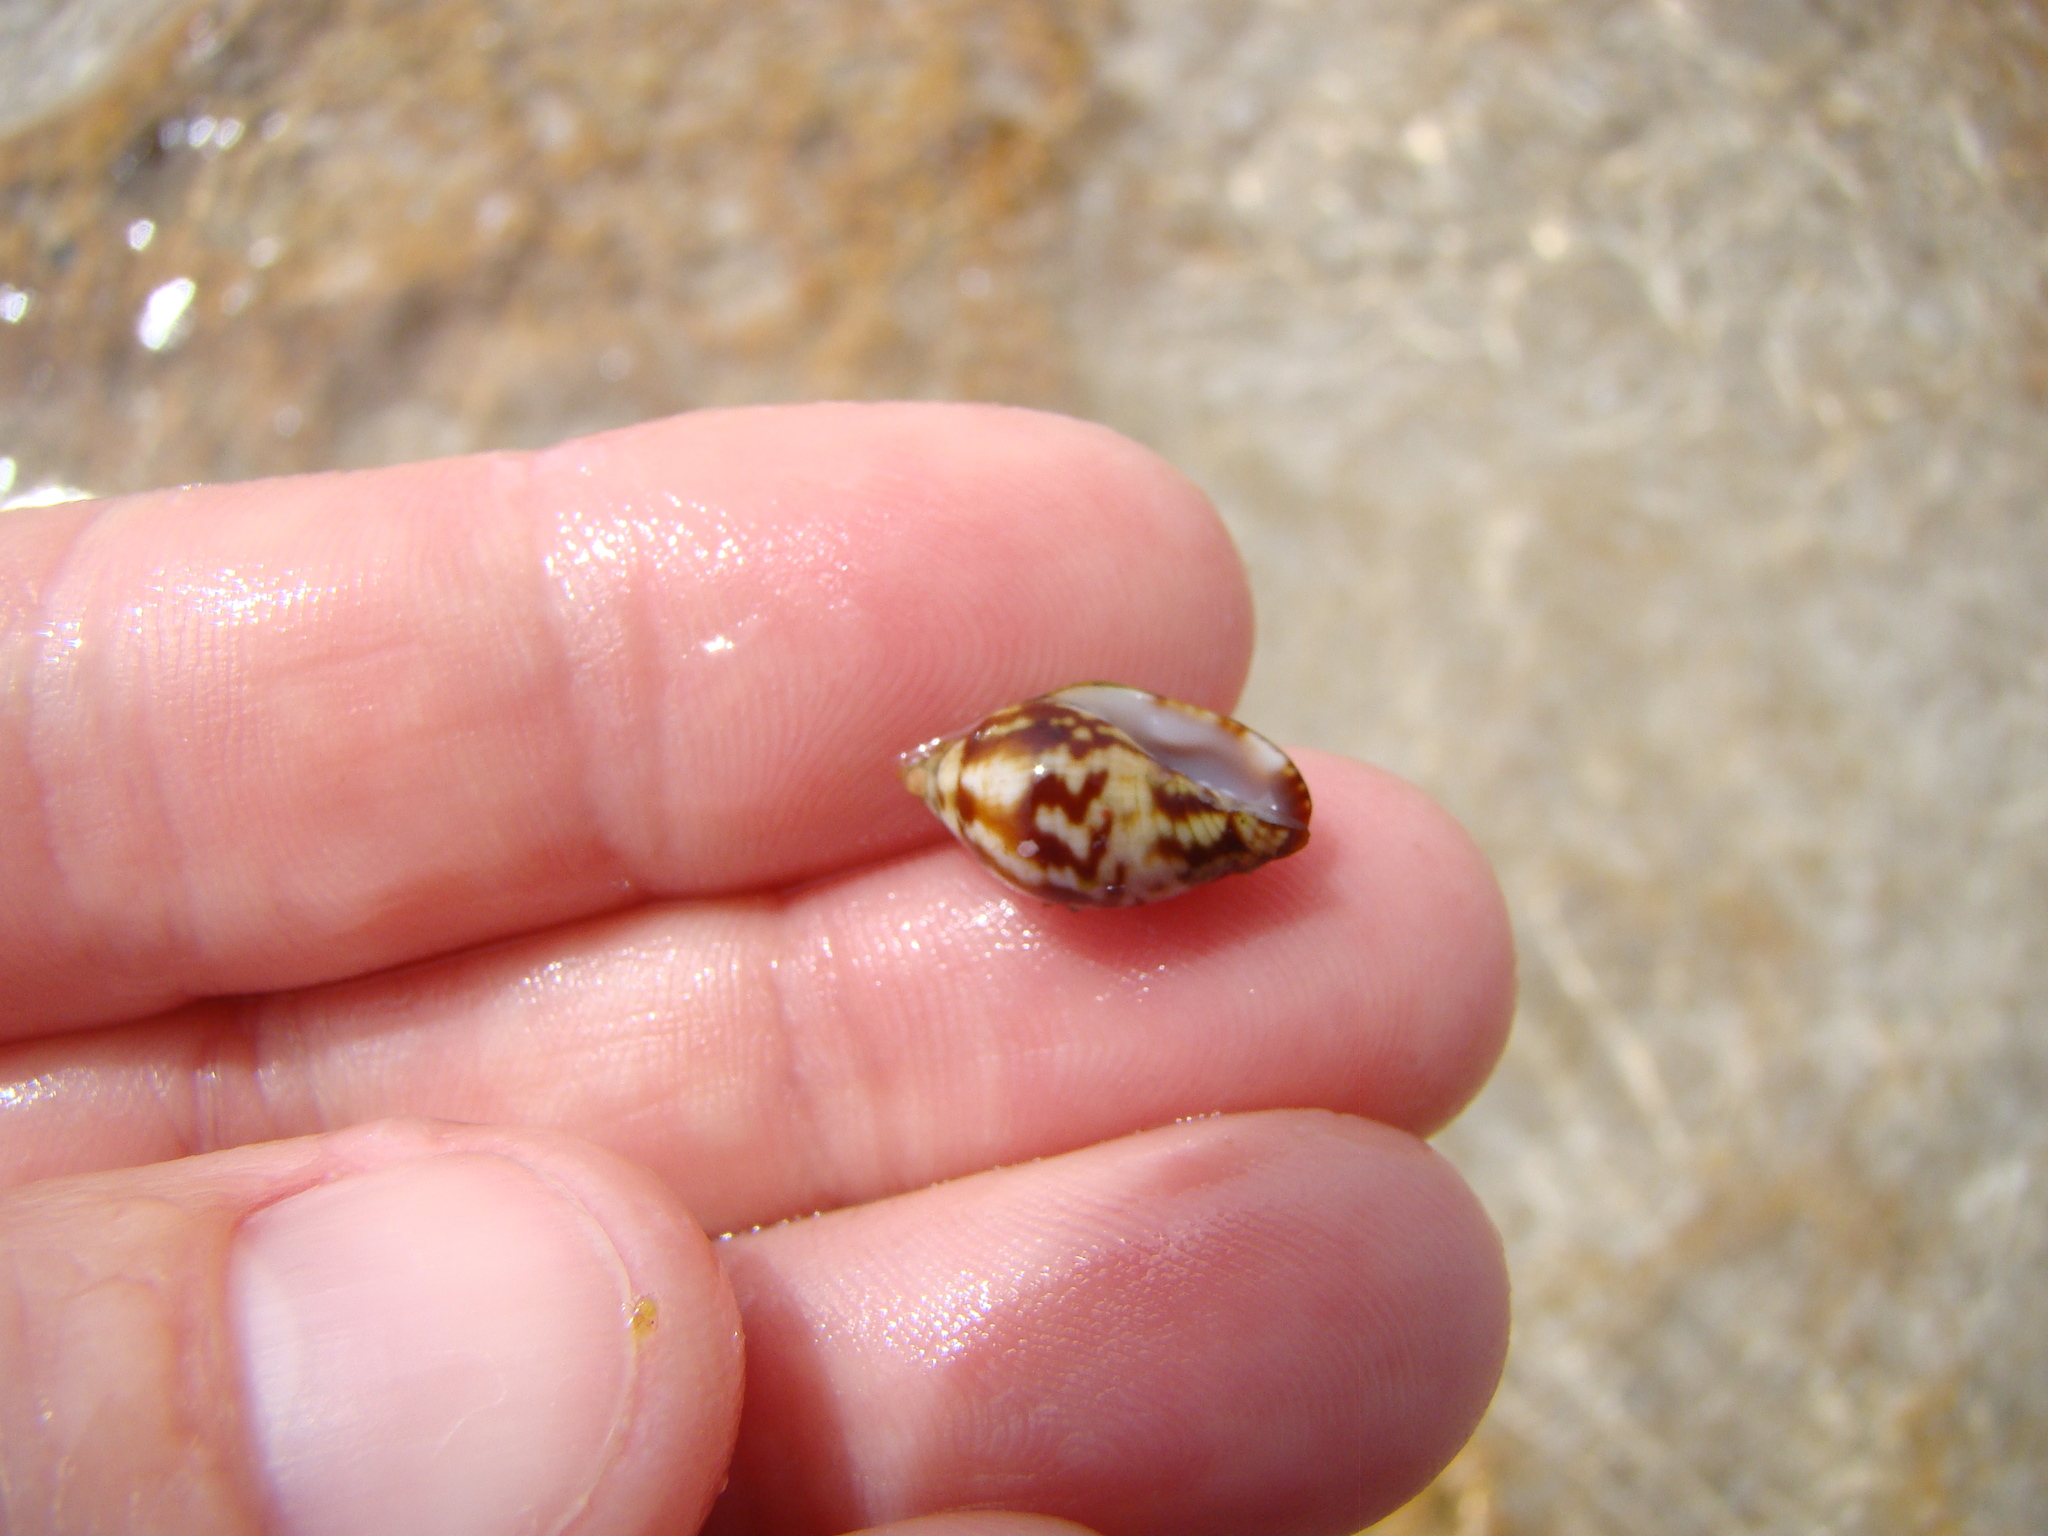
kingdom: Animalia
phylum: Mollusca
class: Gastropoda
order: Neogastropoda
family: Mitridae
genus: Strigatella
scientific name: Strigatella litterata
